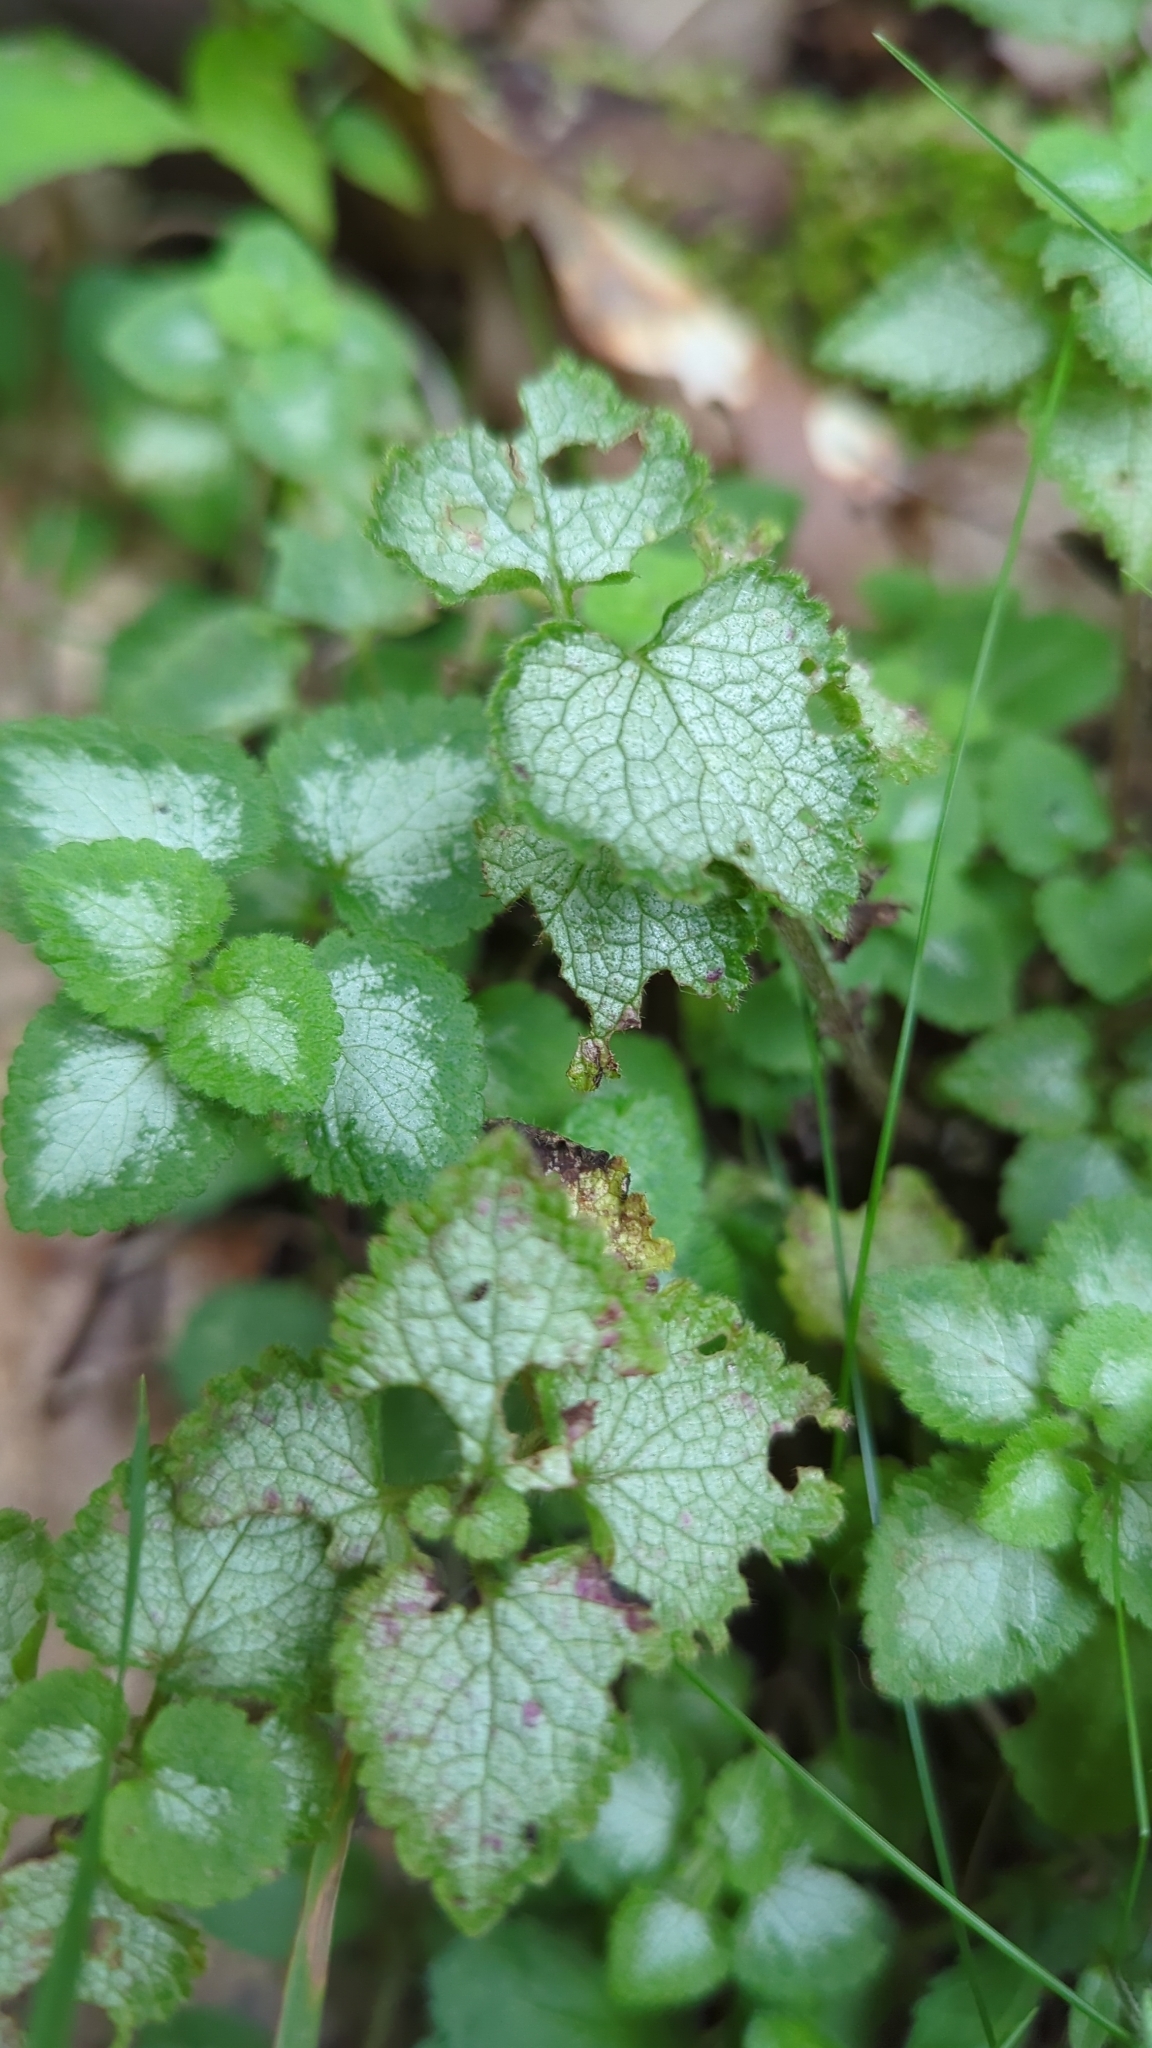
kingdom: Plantae
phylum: Tracheophyta
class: Magnoliopsida
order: Lamiales
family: Lamiaceae
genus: Lamium
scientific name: Lamium maculatum
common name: Spotted dead-nettle
